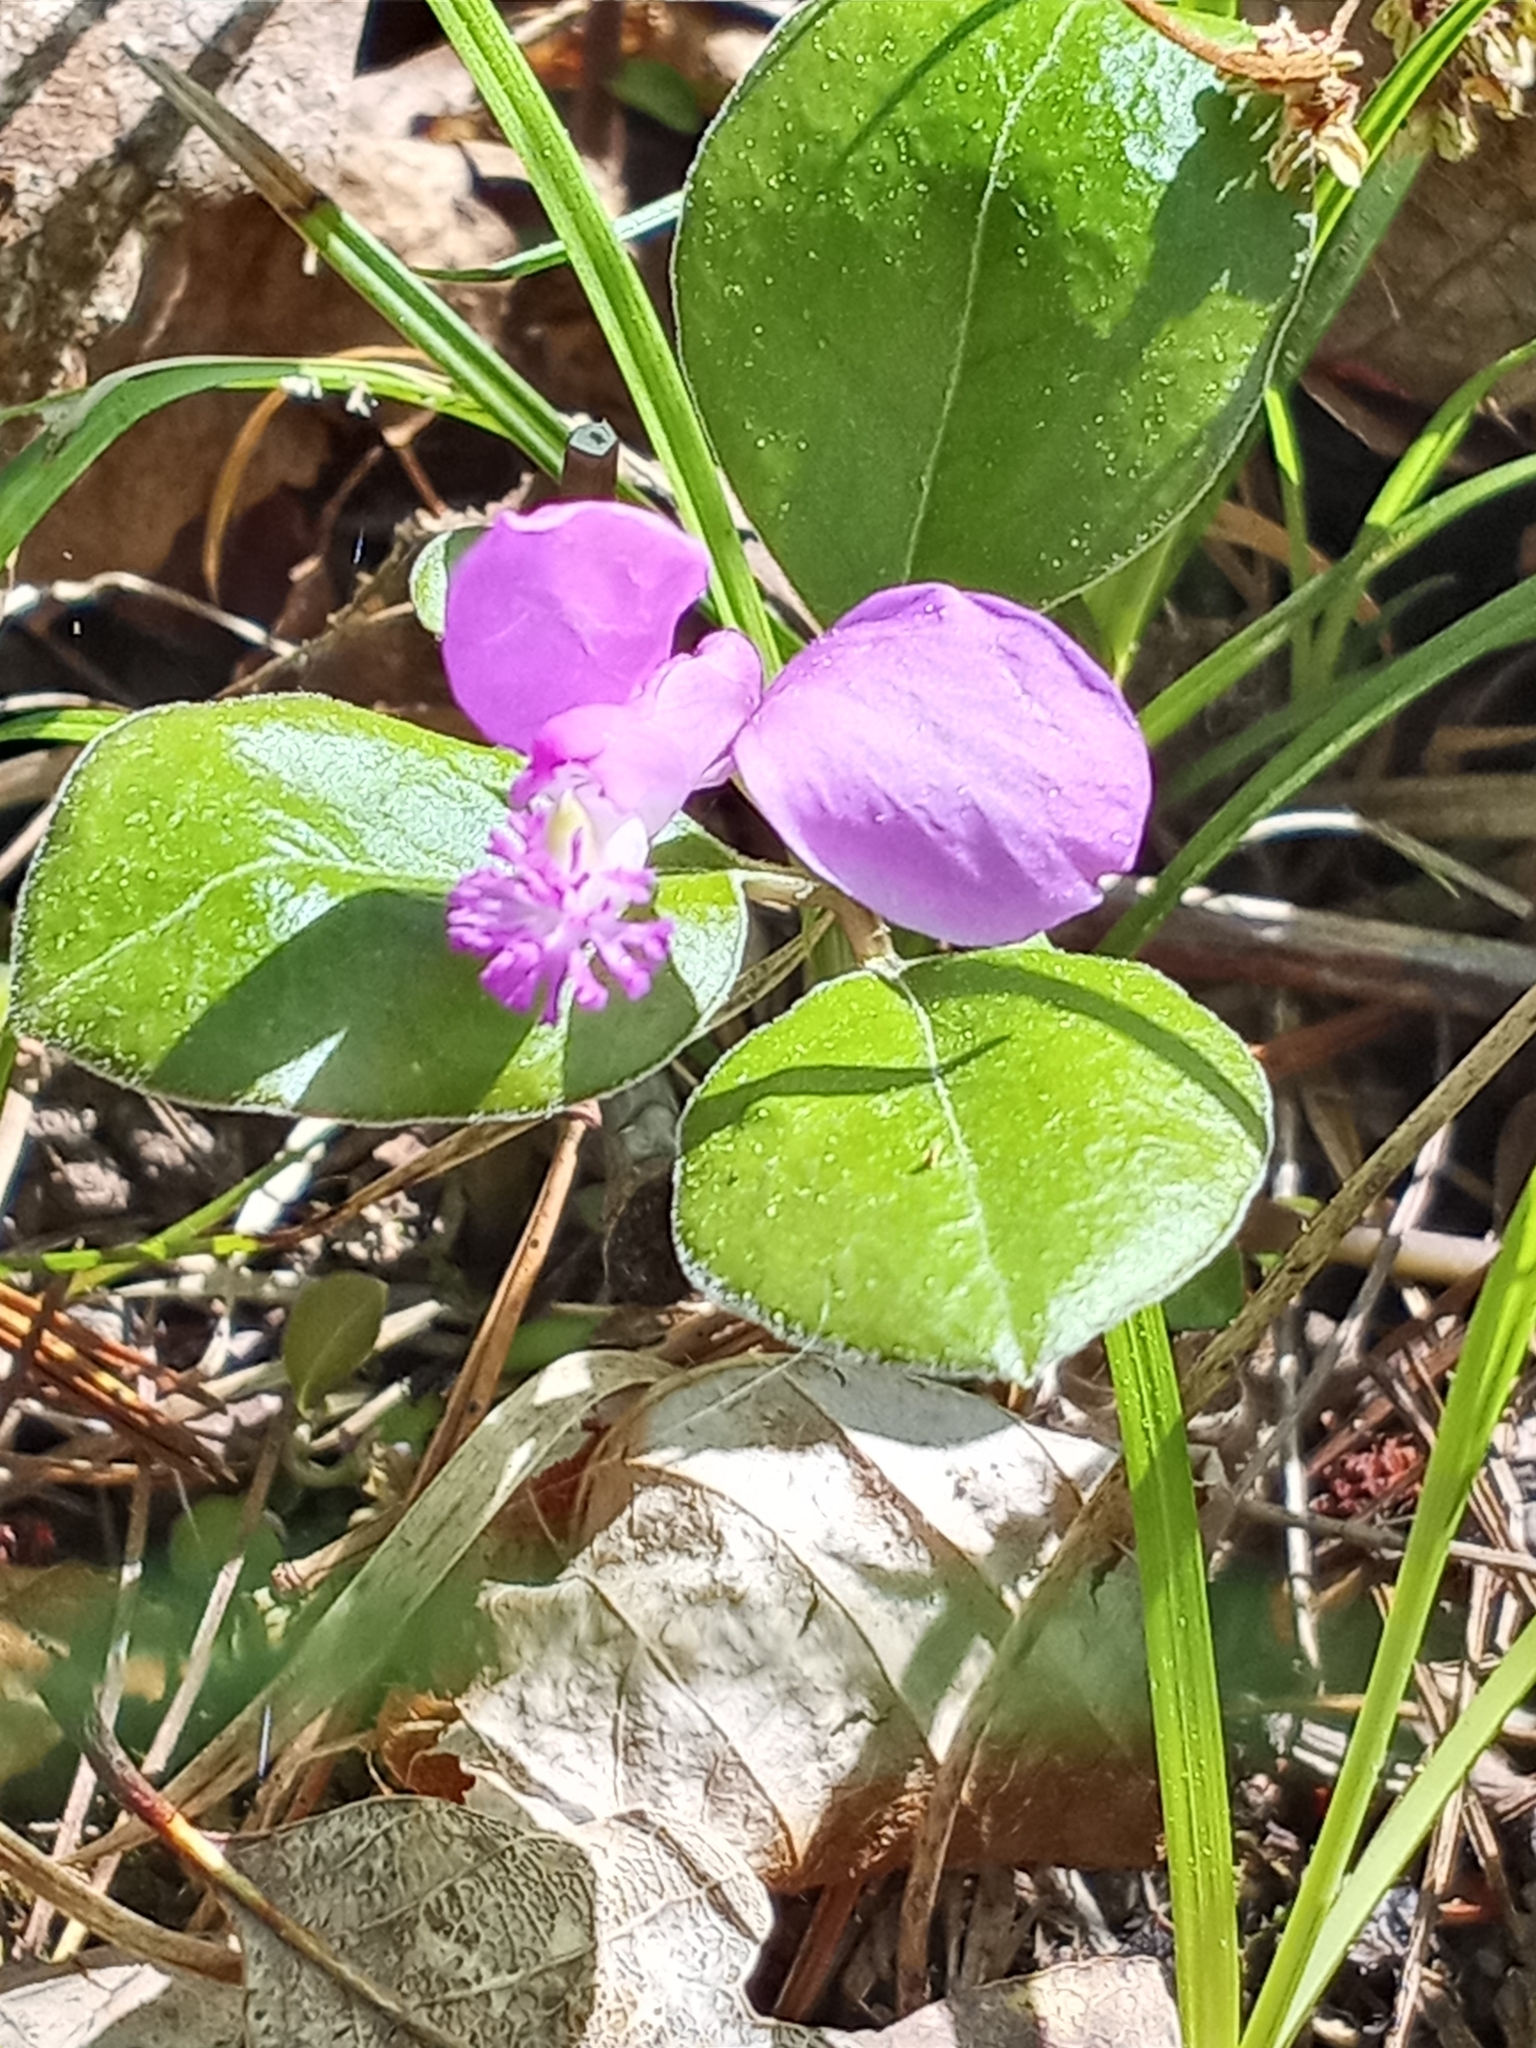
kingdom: Plantae
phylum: Tracheophyta
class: Magnoliopsida
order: Fabales
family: Polygalaceae
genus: Polygaloides
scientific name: Polygaloides paucifolia
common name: Bird-on-the-wing
